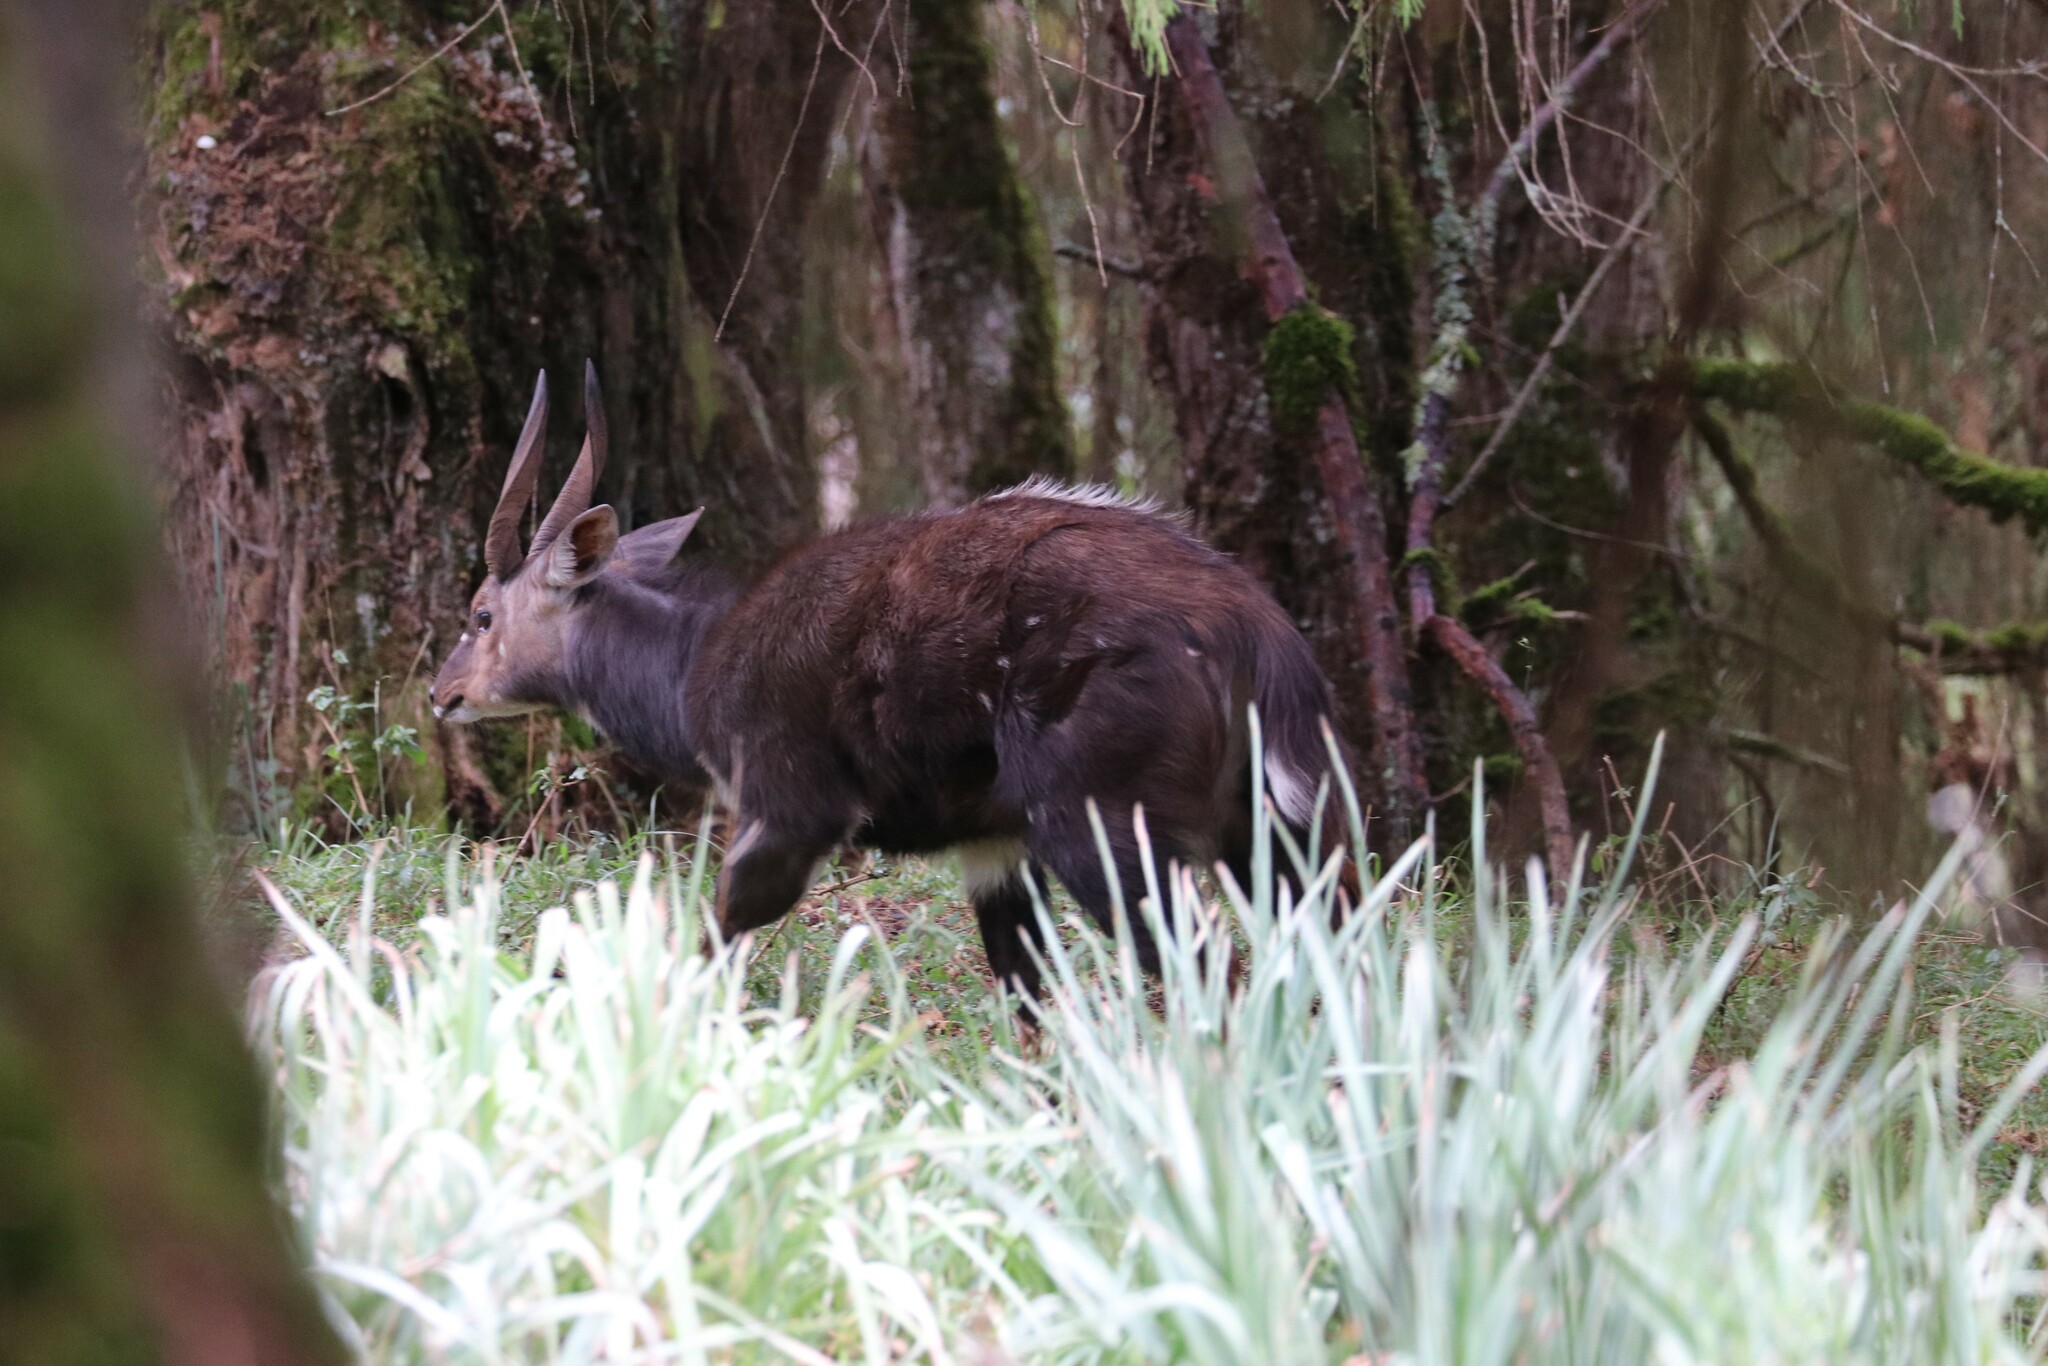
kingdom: Animalia
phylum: Chordata
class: Mammalia
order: Artiodactyla
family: Bovidae
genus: Tragelaphus
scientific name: Tragelaphus scriptus
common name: Bushbuck
